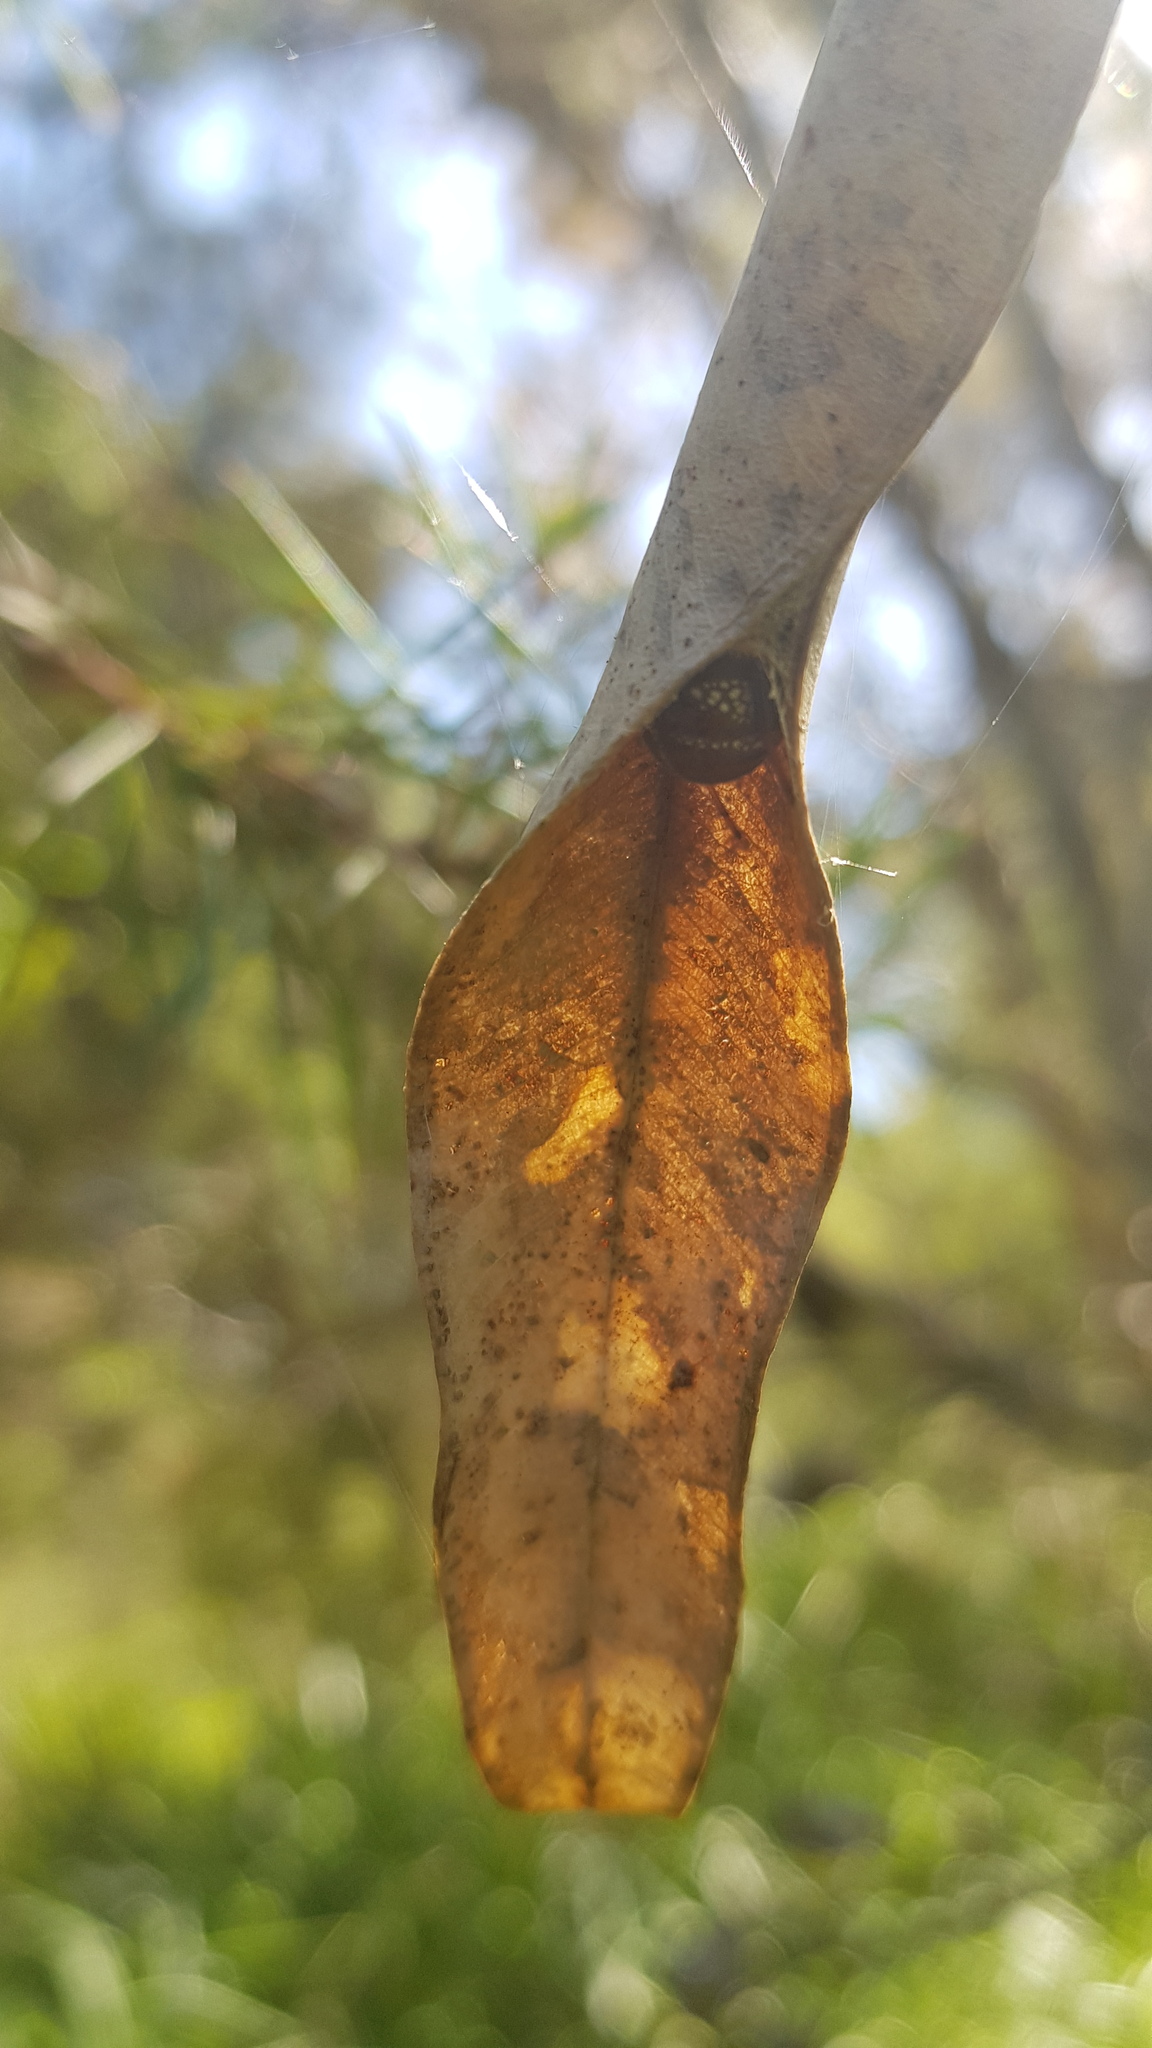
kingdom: Animalia
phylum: Arthropoda
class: Arachnida
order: Araneae
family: Araneidae
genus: Phonognatha
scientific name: Phonognatha graeffei
